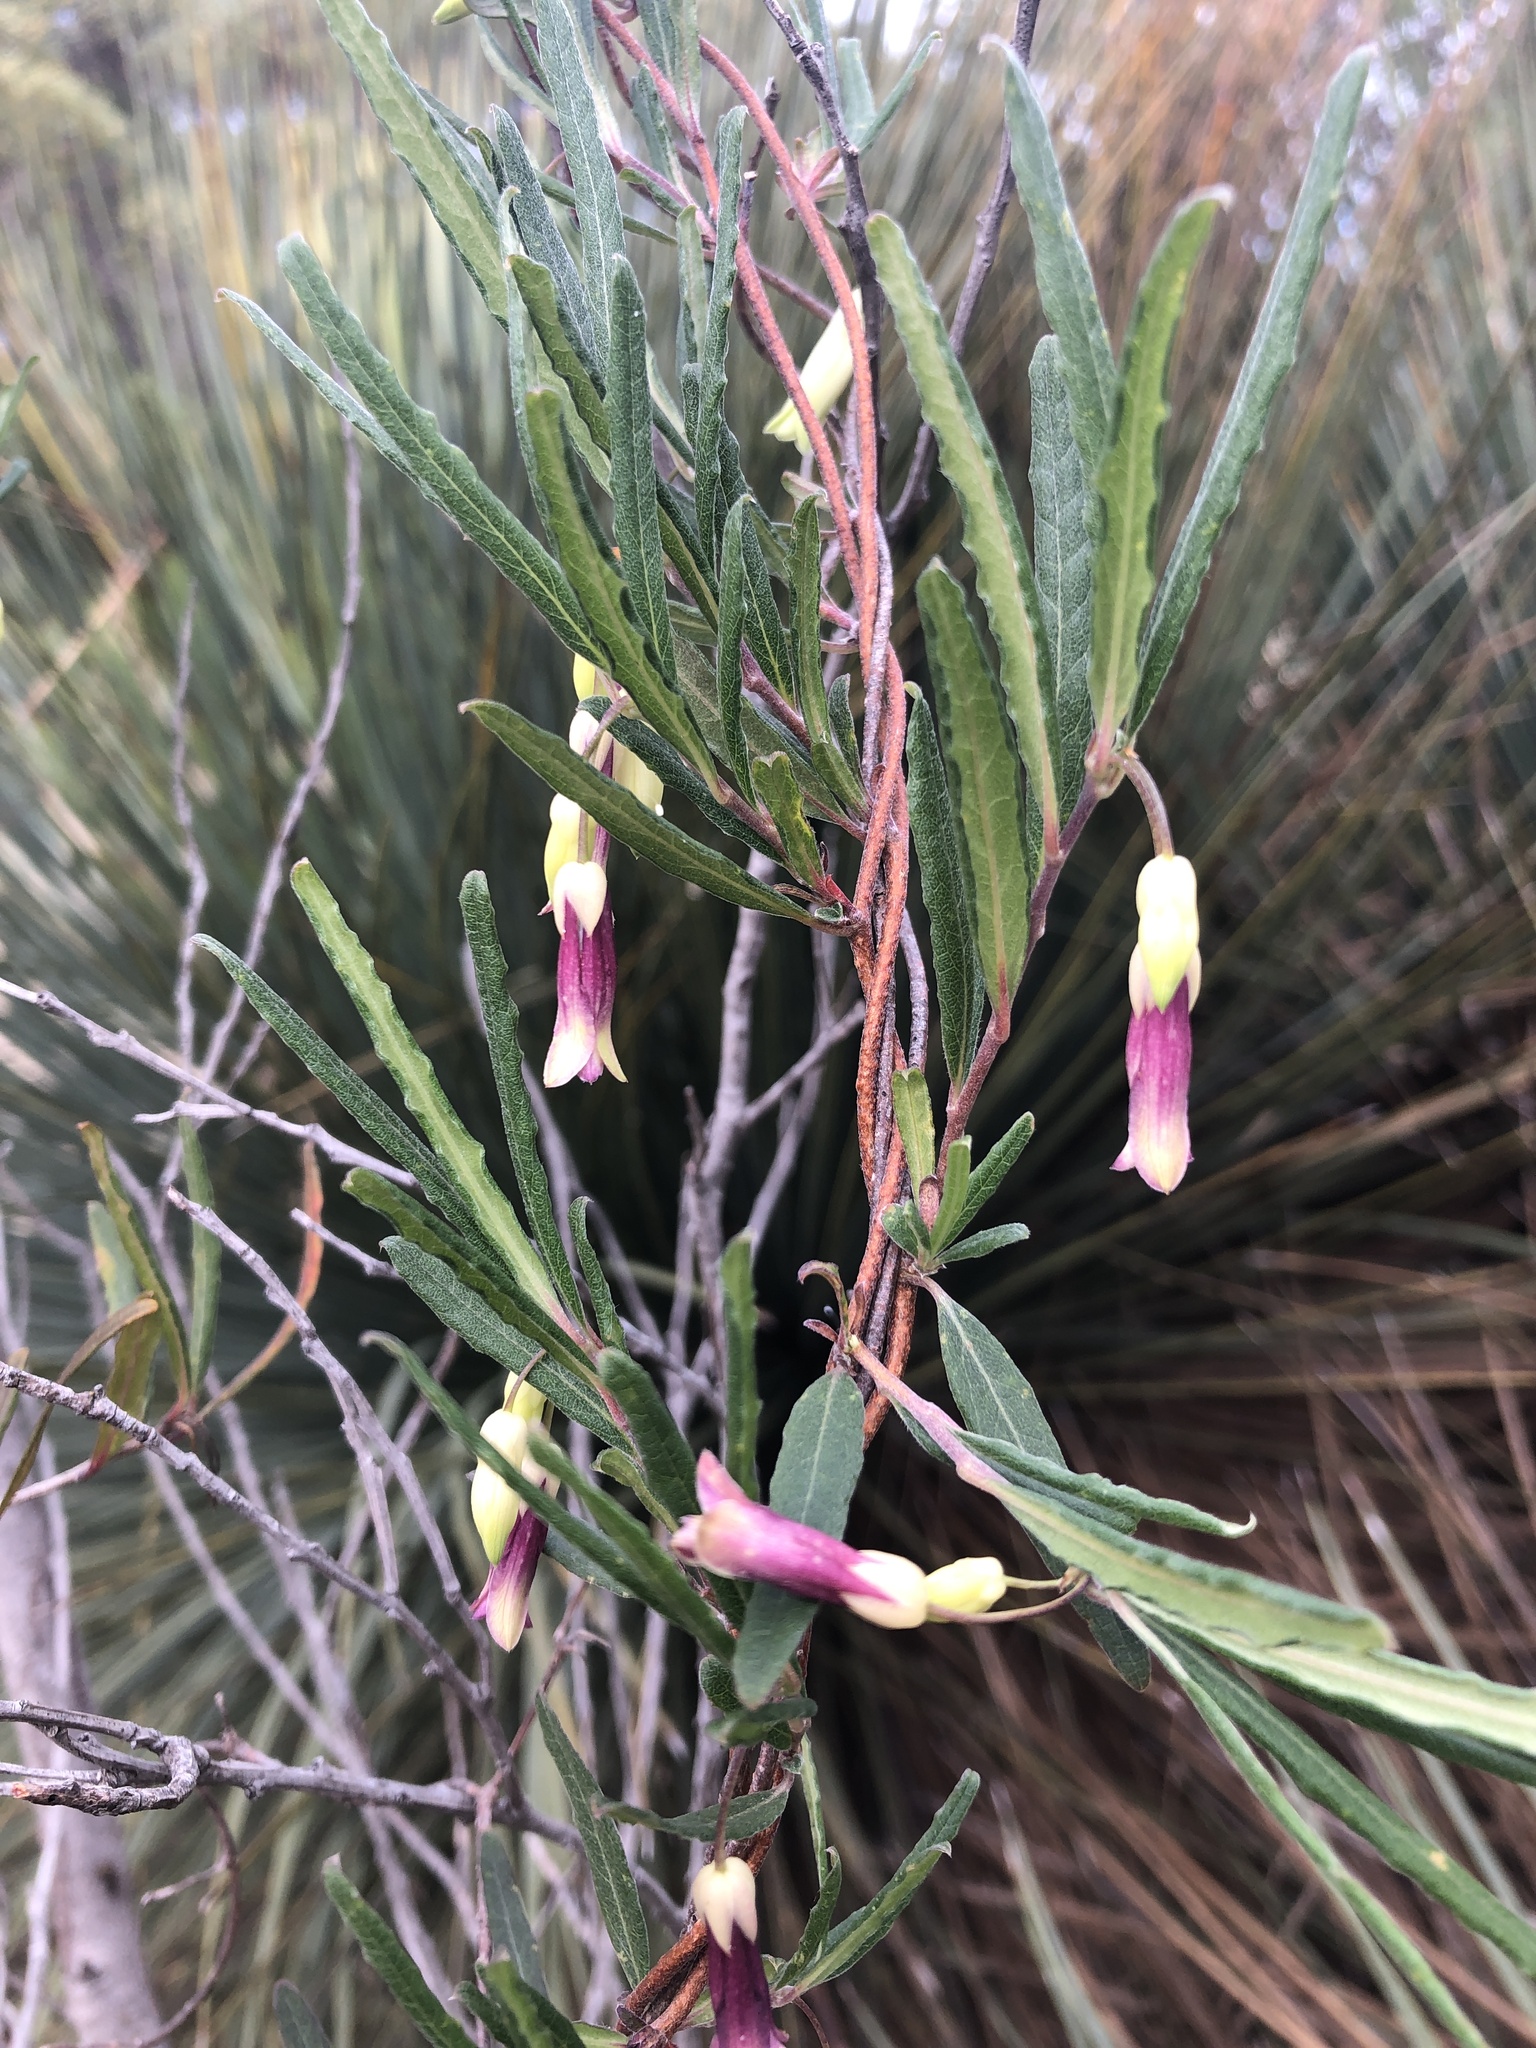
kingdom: Plantae
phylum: Tracheophyta
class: Magnoliopsida
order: Apiales
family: Pittosporaceae
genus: Billardiera
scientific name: Billardiera uniflora
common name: Single-flower apple-berry
